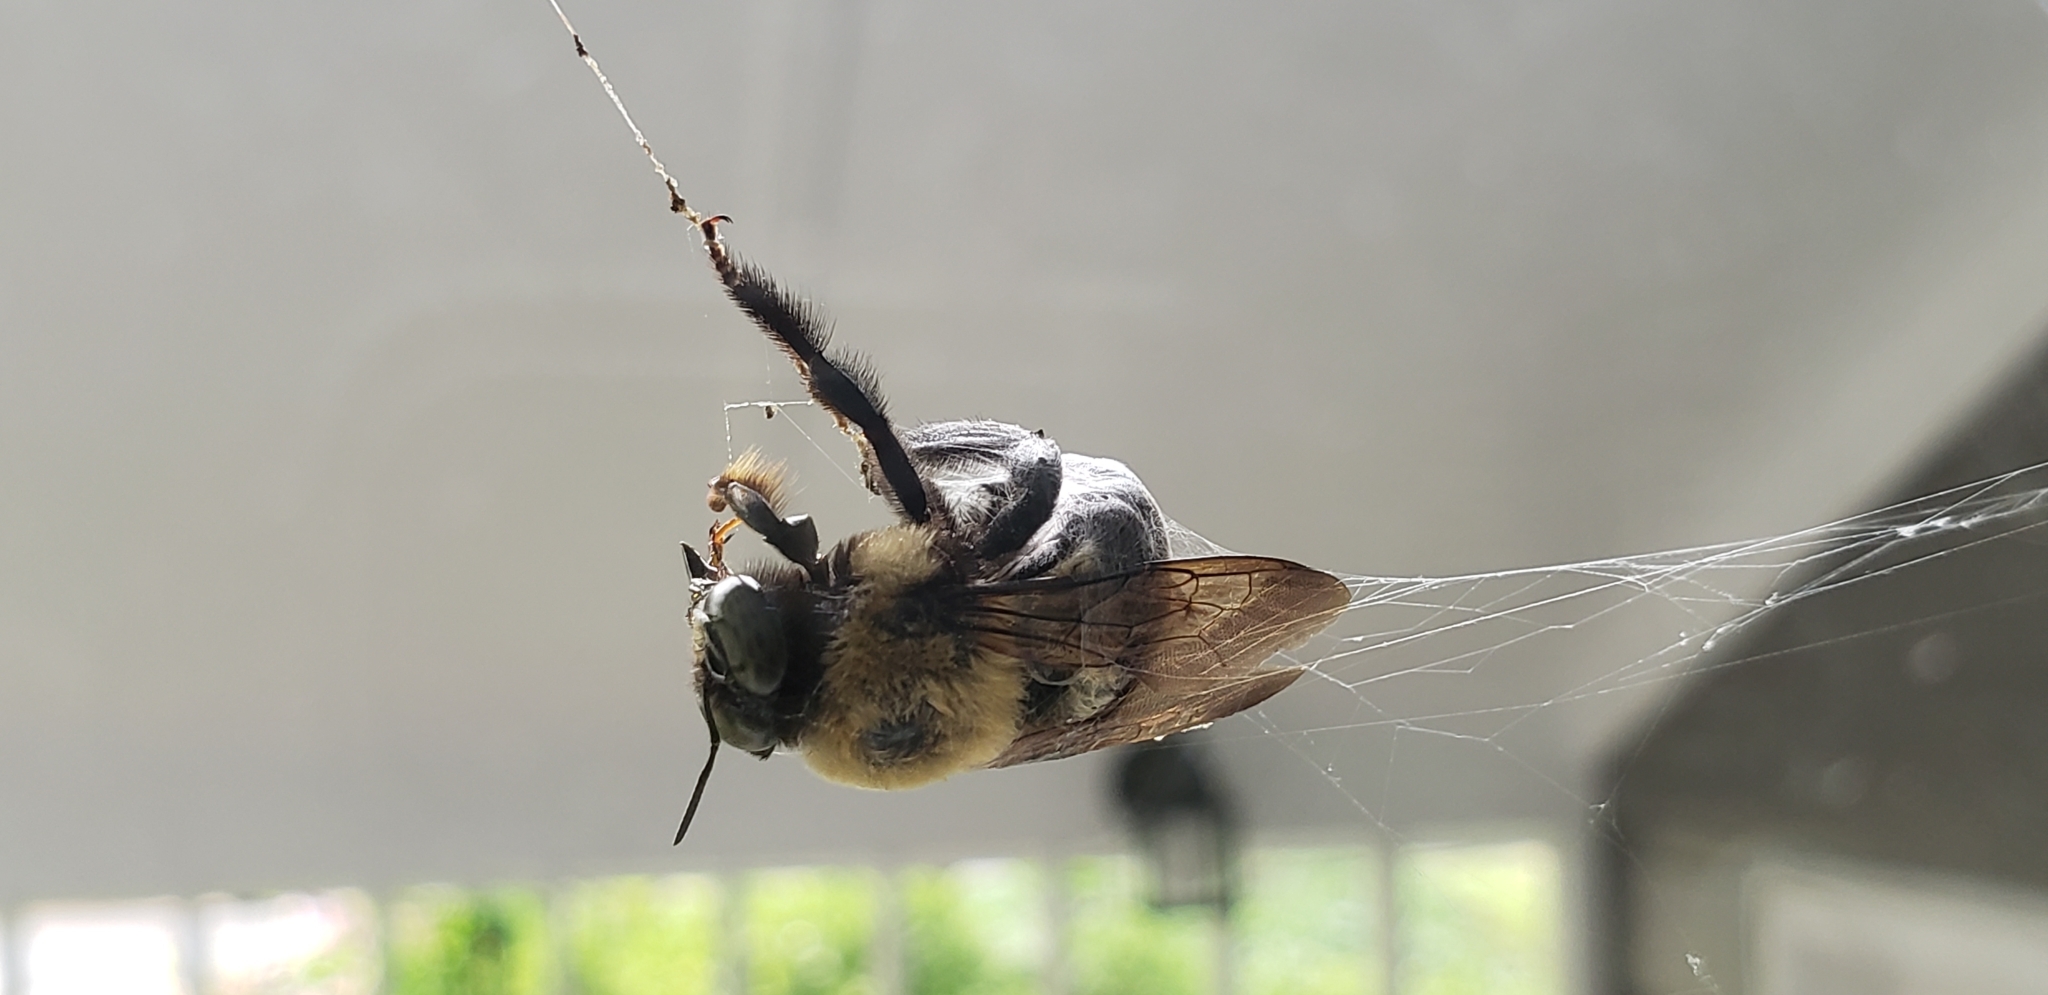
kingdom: Animalia
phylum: Arthropoda
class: Insecta
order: Hymenoptera
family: Apidae
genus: Xylocopa
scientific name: Xylocopa virginica
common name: Carpenter bee
